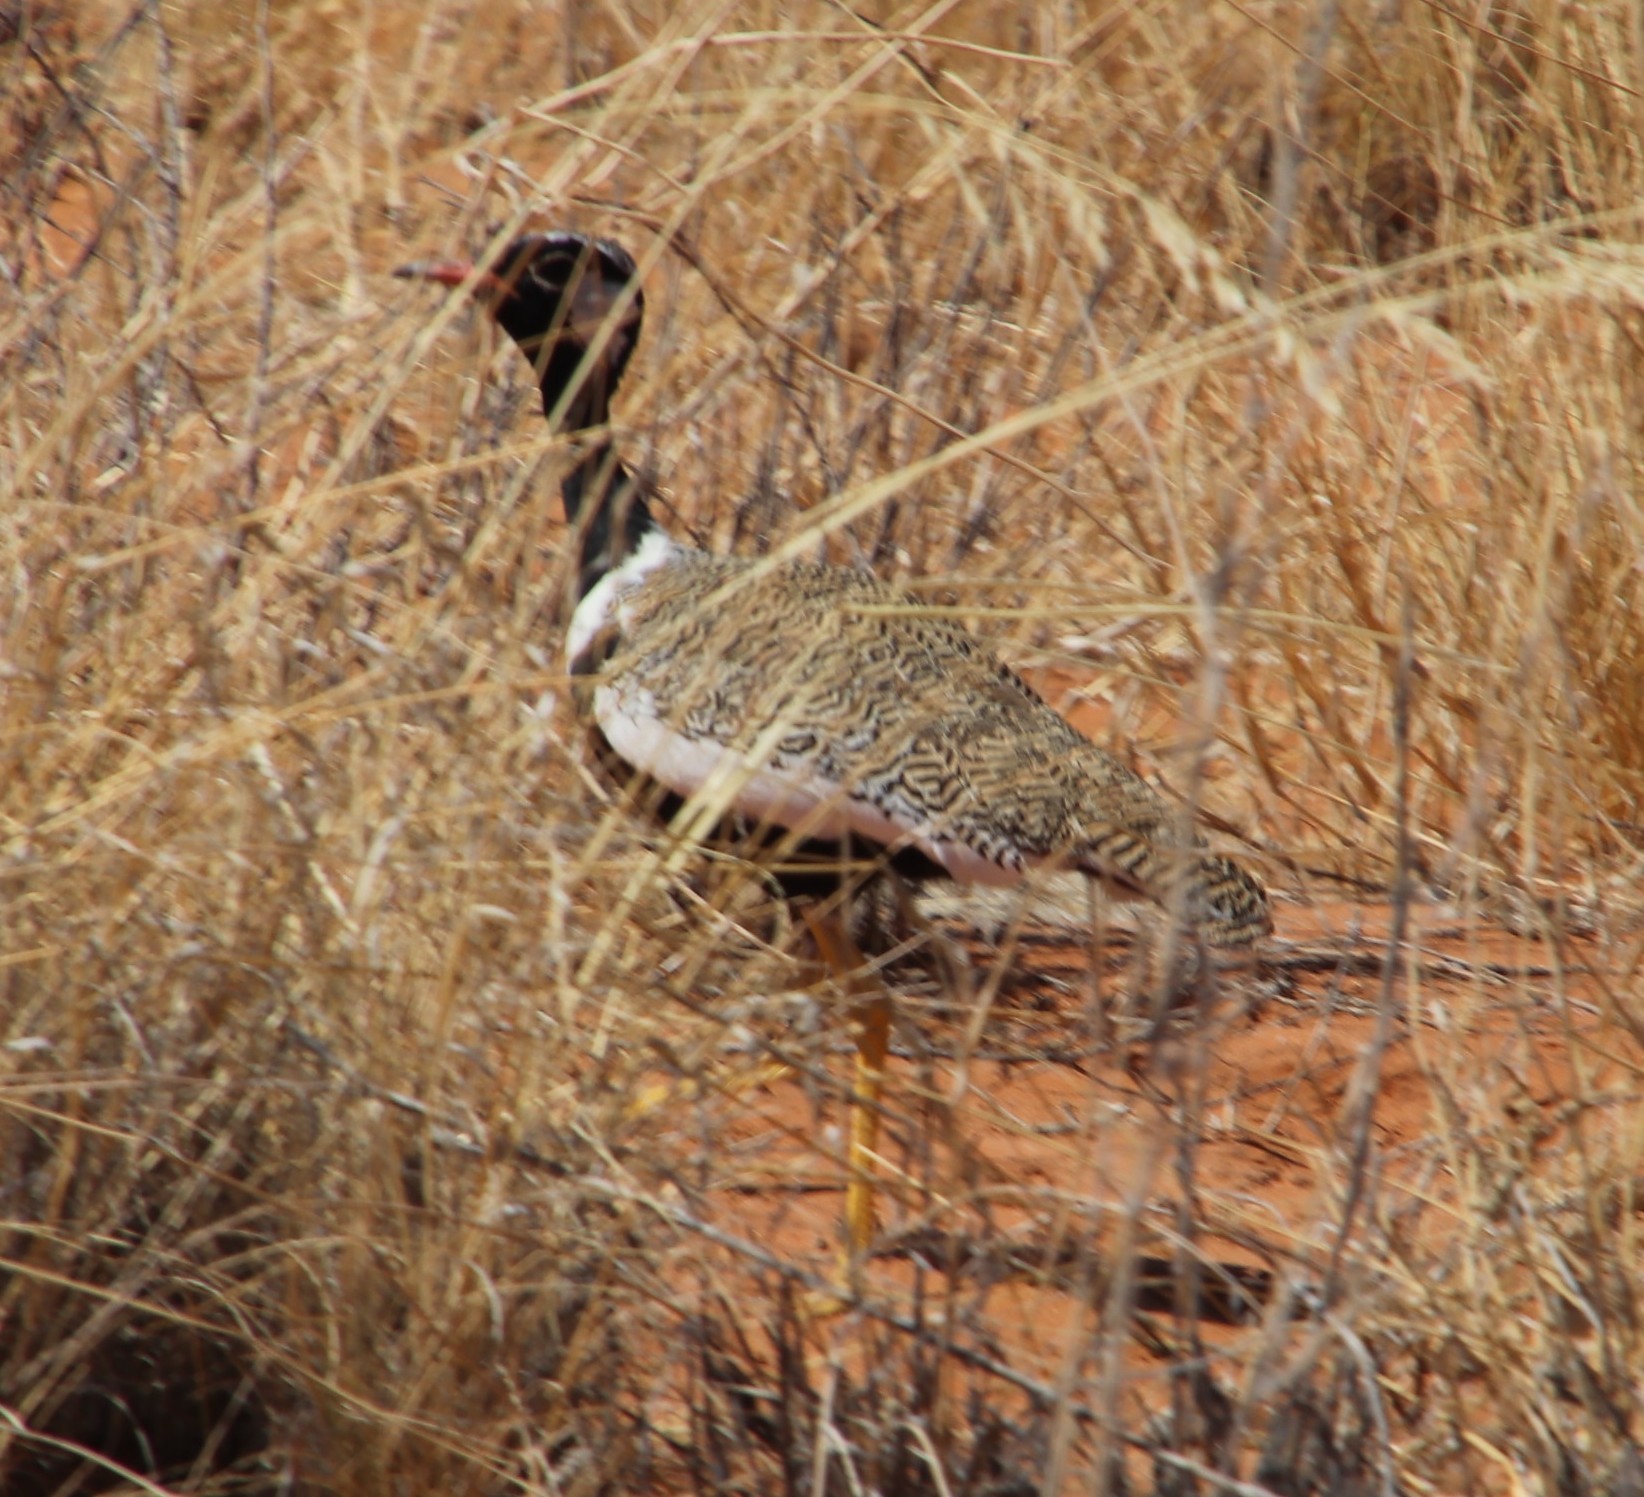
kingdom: Animalia
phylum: Chordata
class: Aves
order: Otidiformes
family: Otididae
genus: Afrotis
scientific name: Afrotis afraoides
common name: Northern black korhaan
